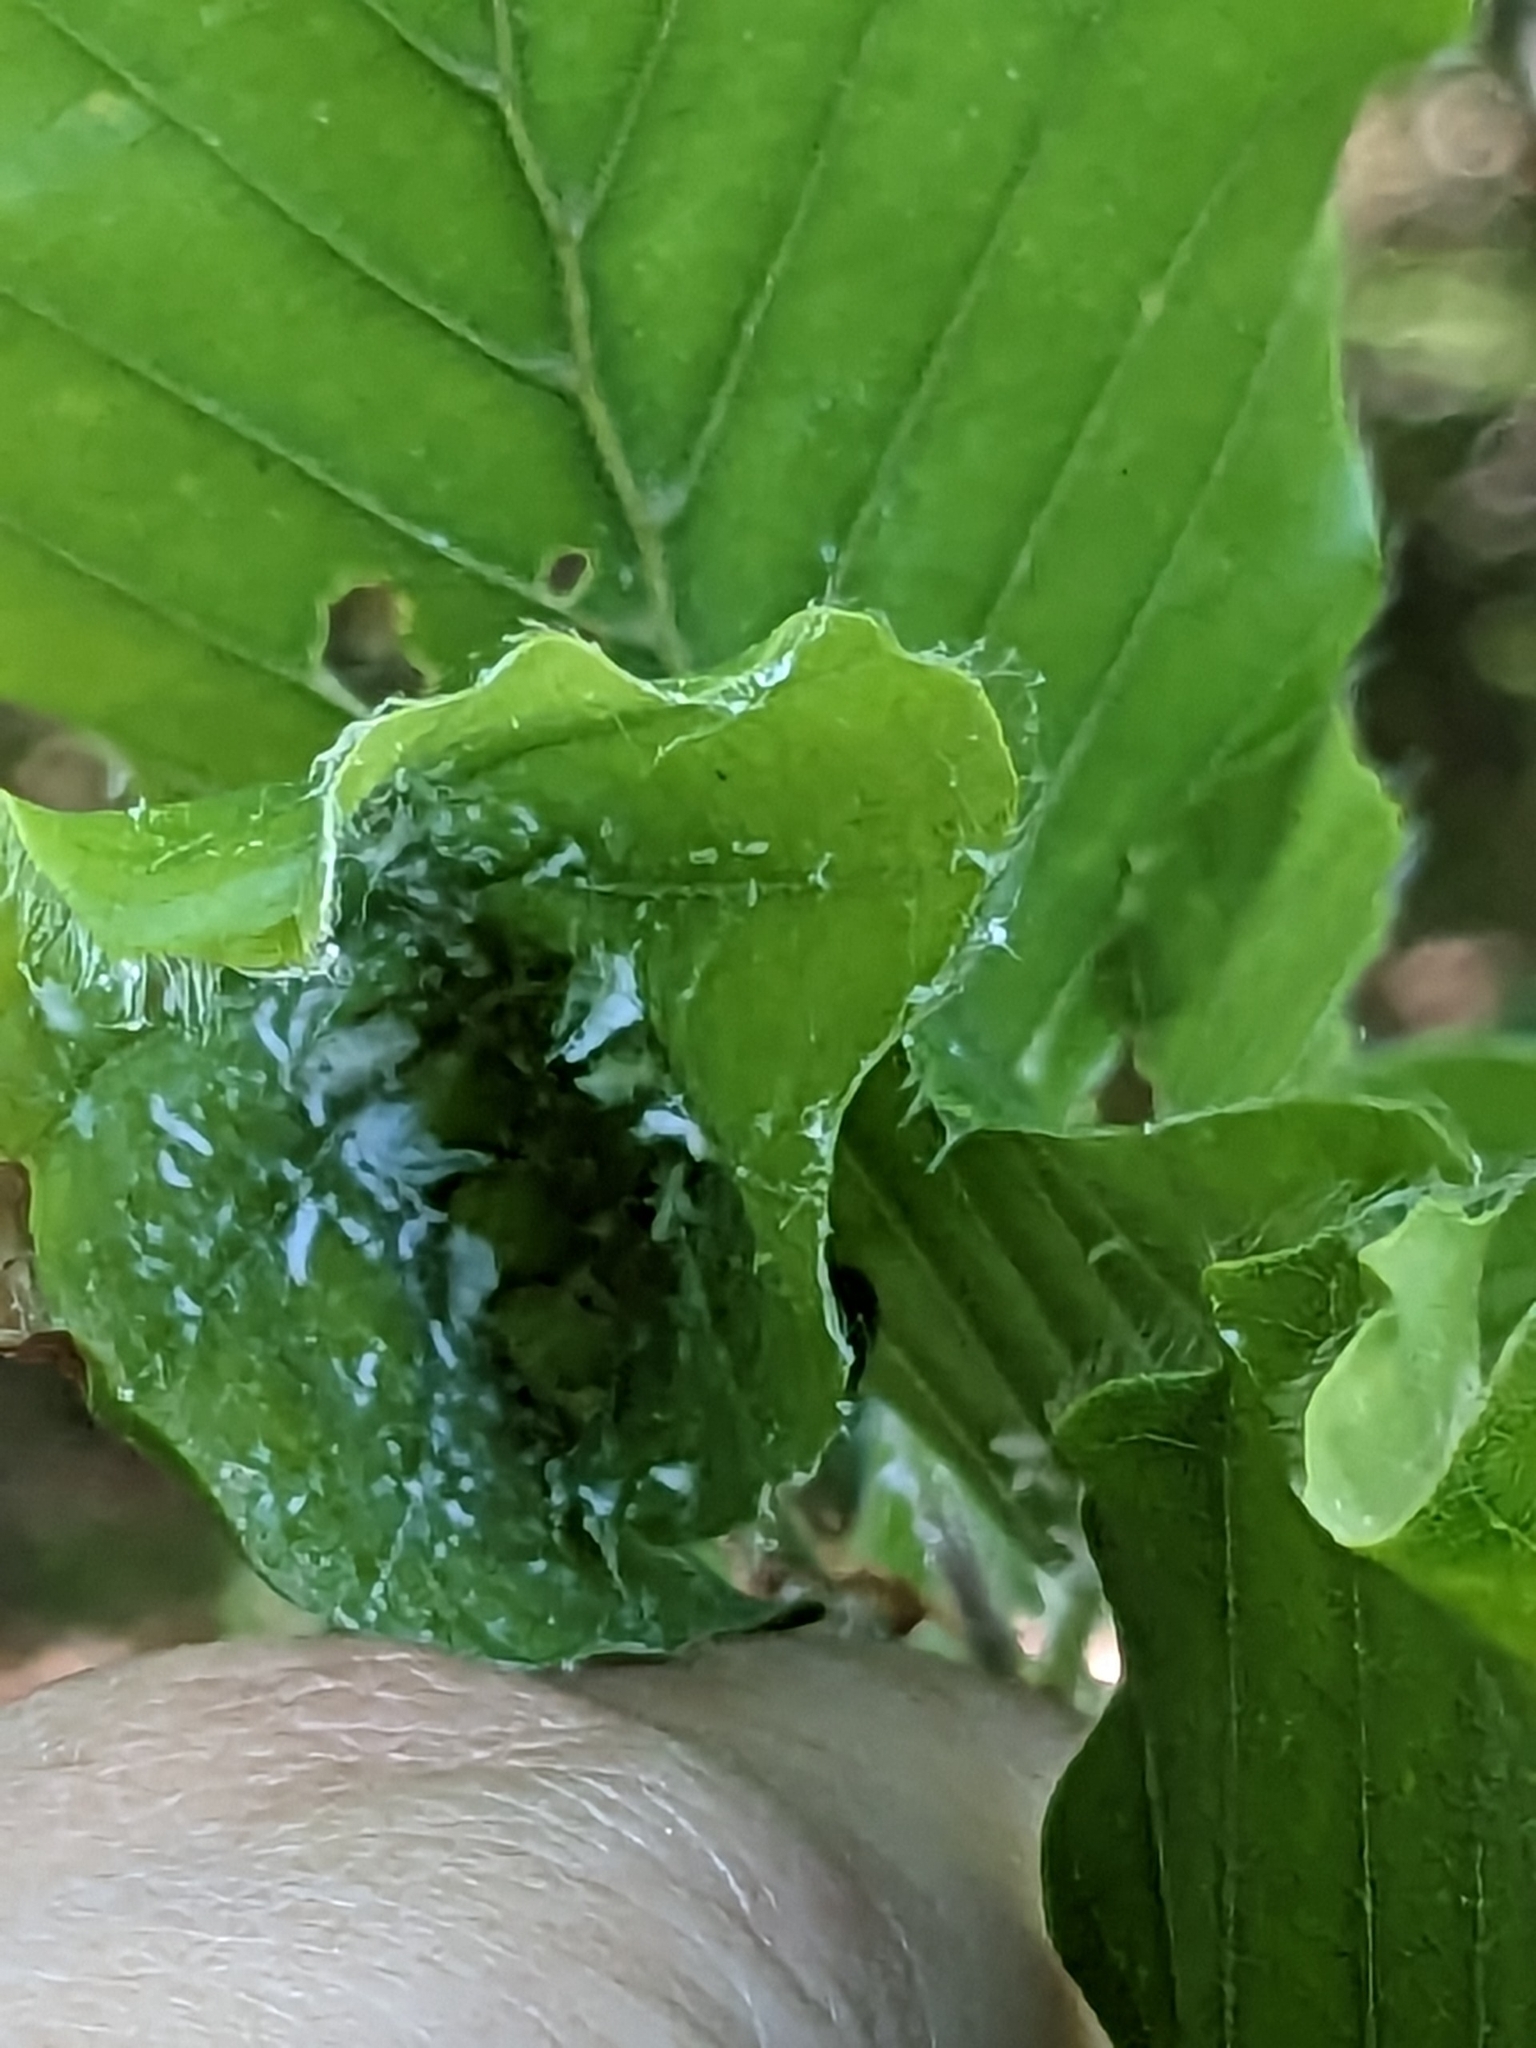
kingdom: Animalia
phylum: Arthropoda
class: Insecta
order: Hemiptera
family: Aphididae
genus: Phyllaphis
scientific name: Phyllaphis fagi
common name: Beech aphid
